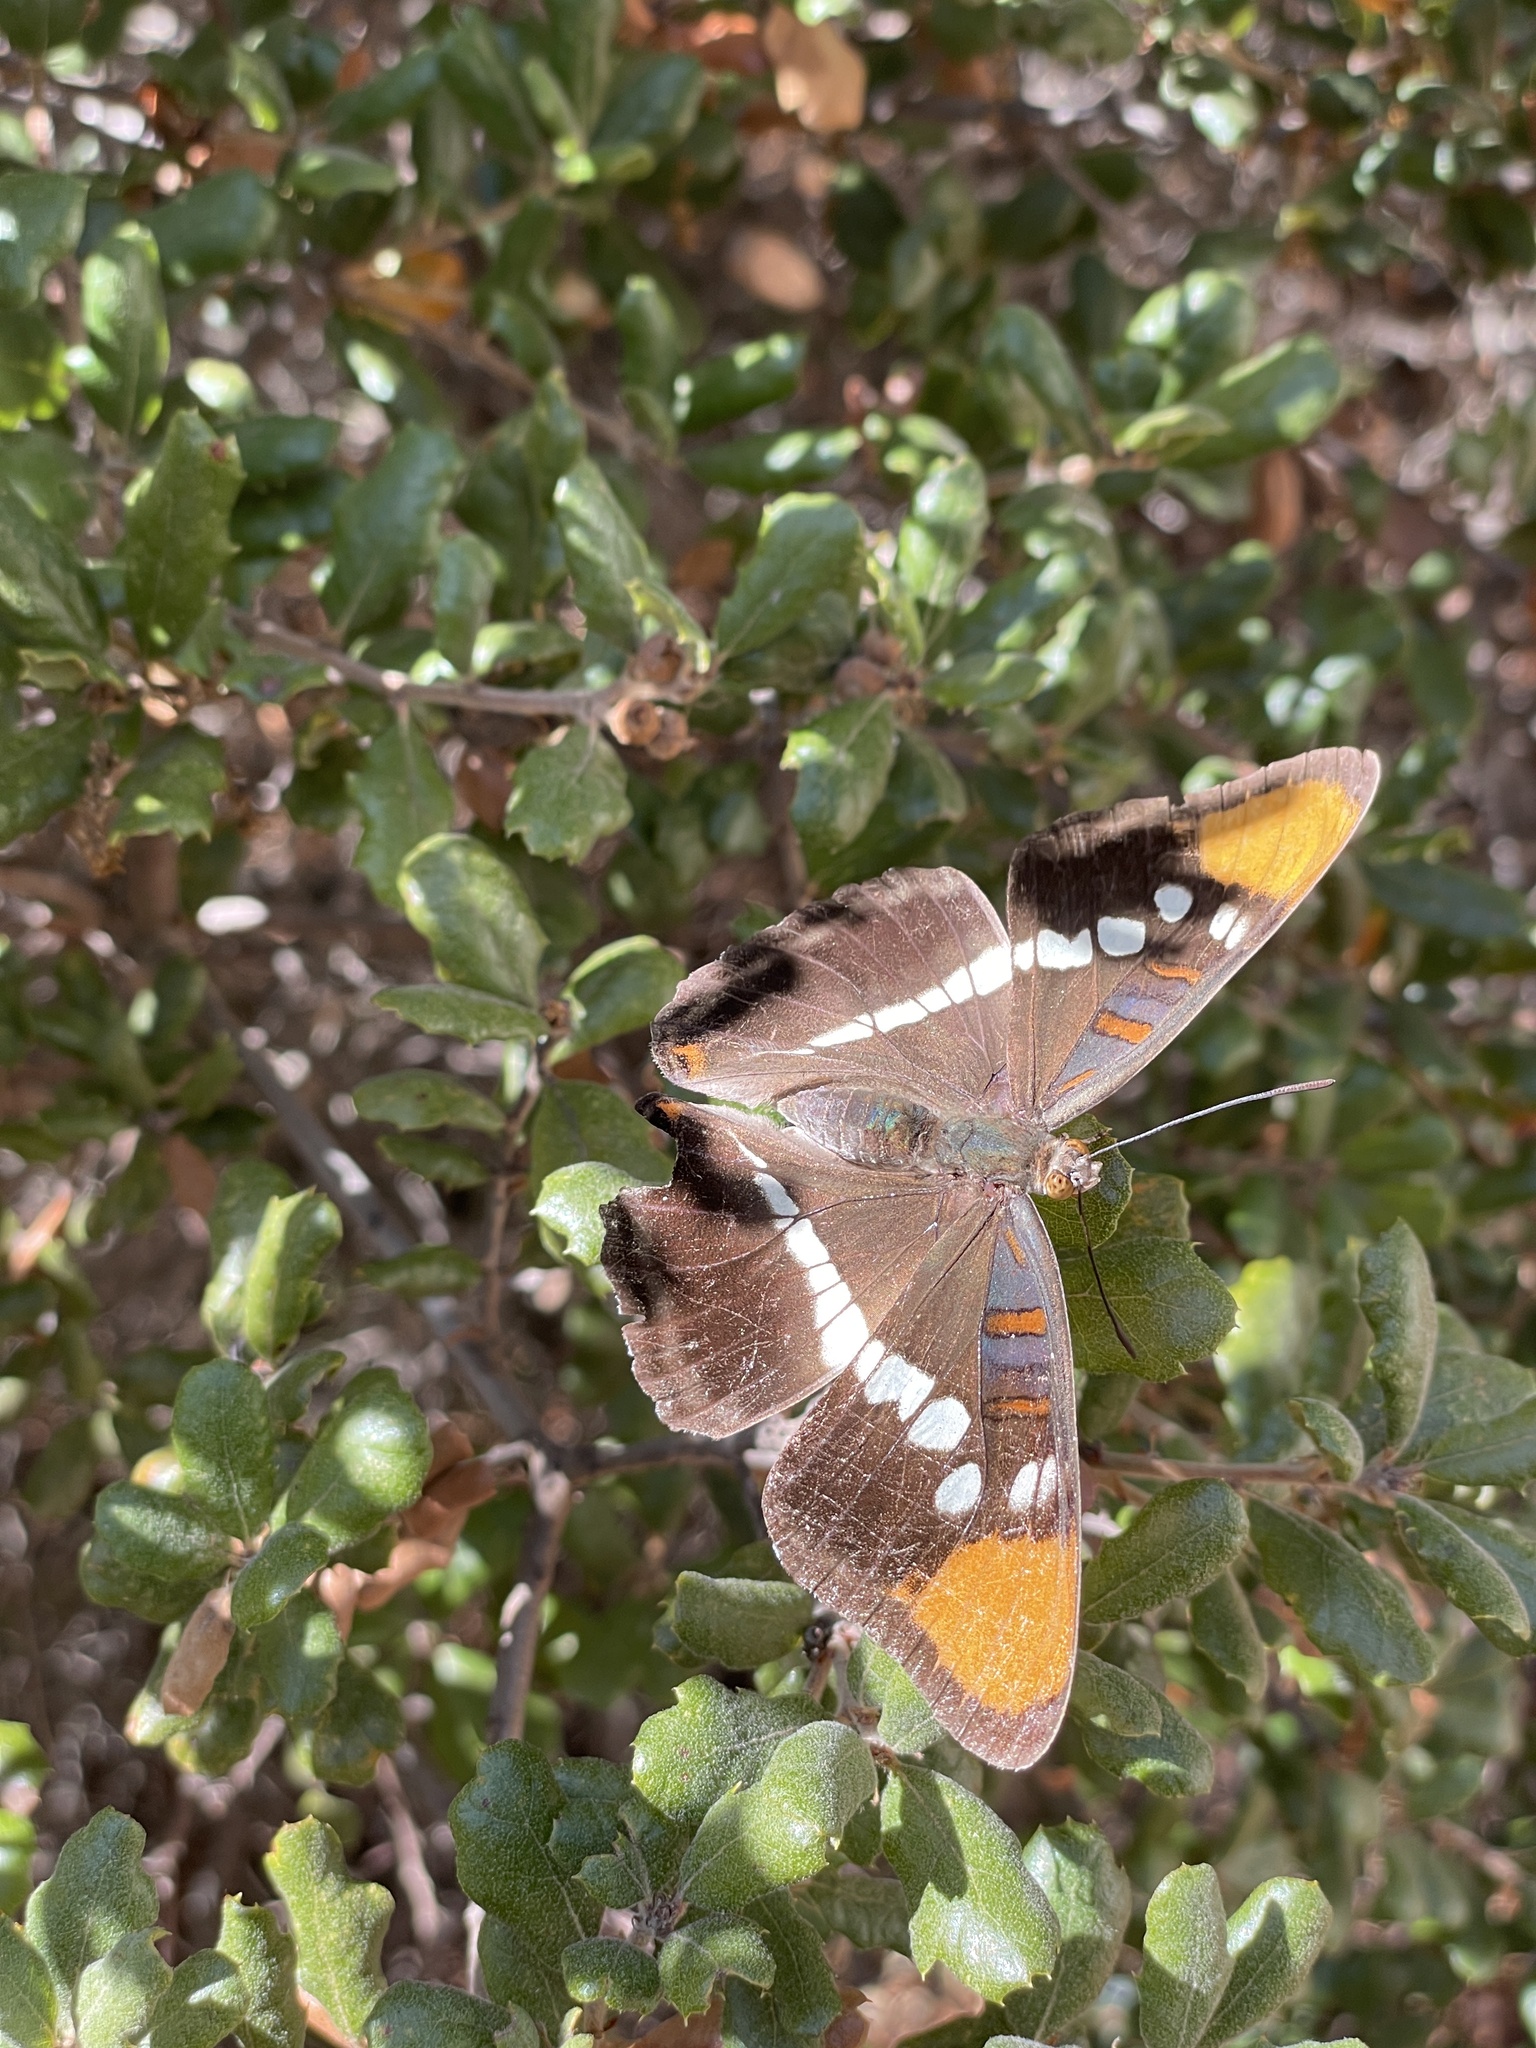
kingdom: Animalia
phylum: Arthropoda
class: Insecta
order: Lepidoptera
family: Nymphalidae
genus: Limenitis
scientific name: Limenitis bredowii
